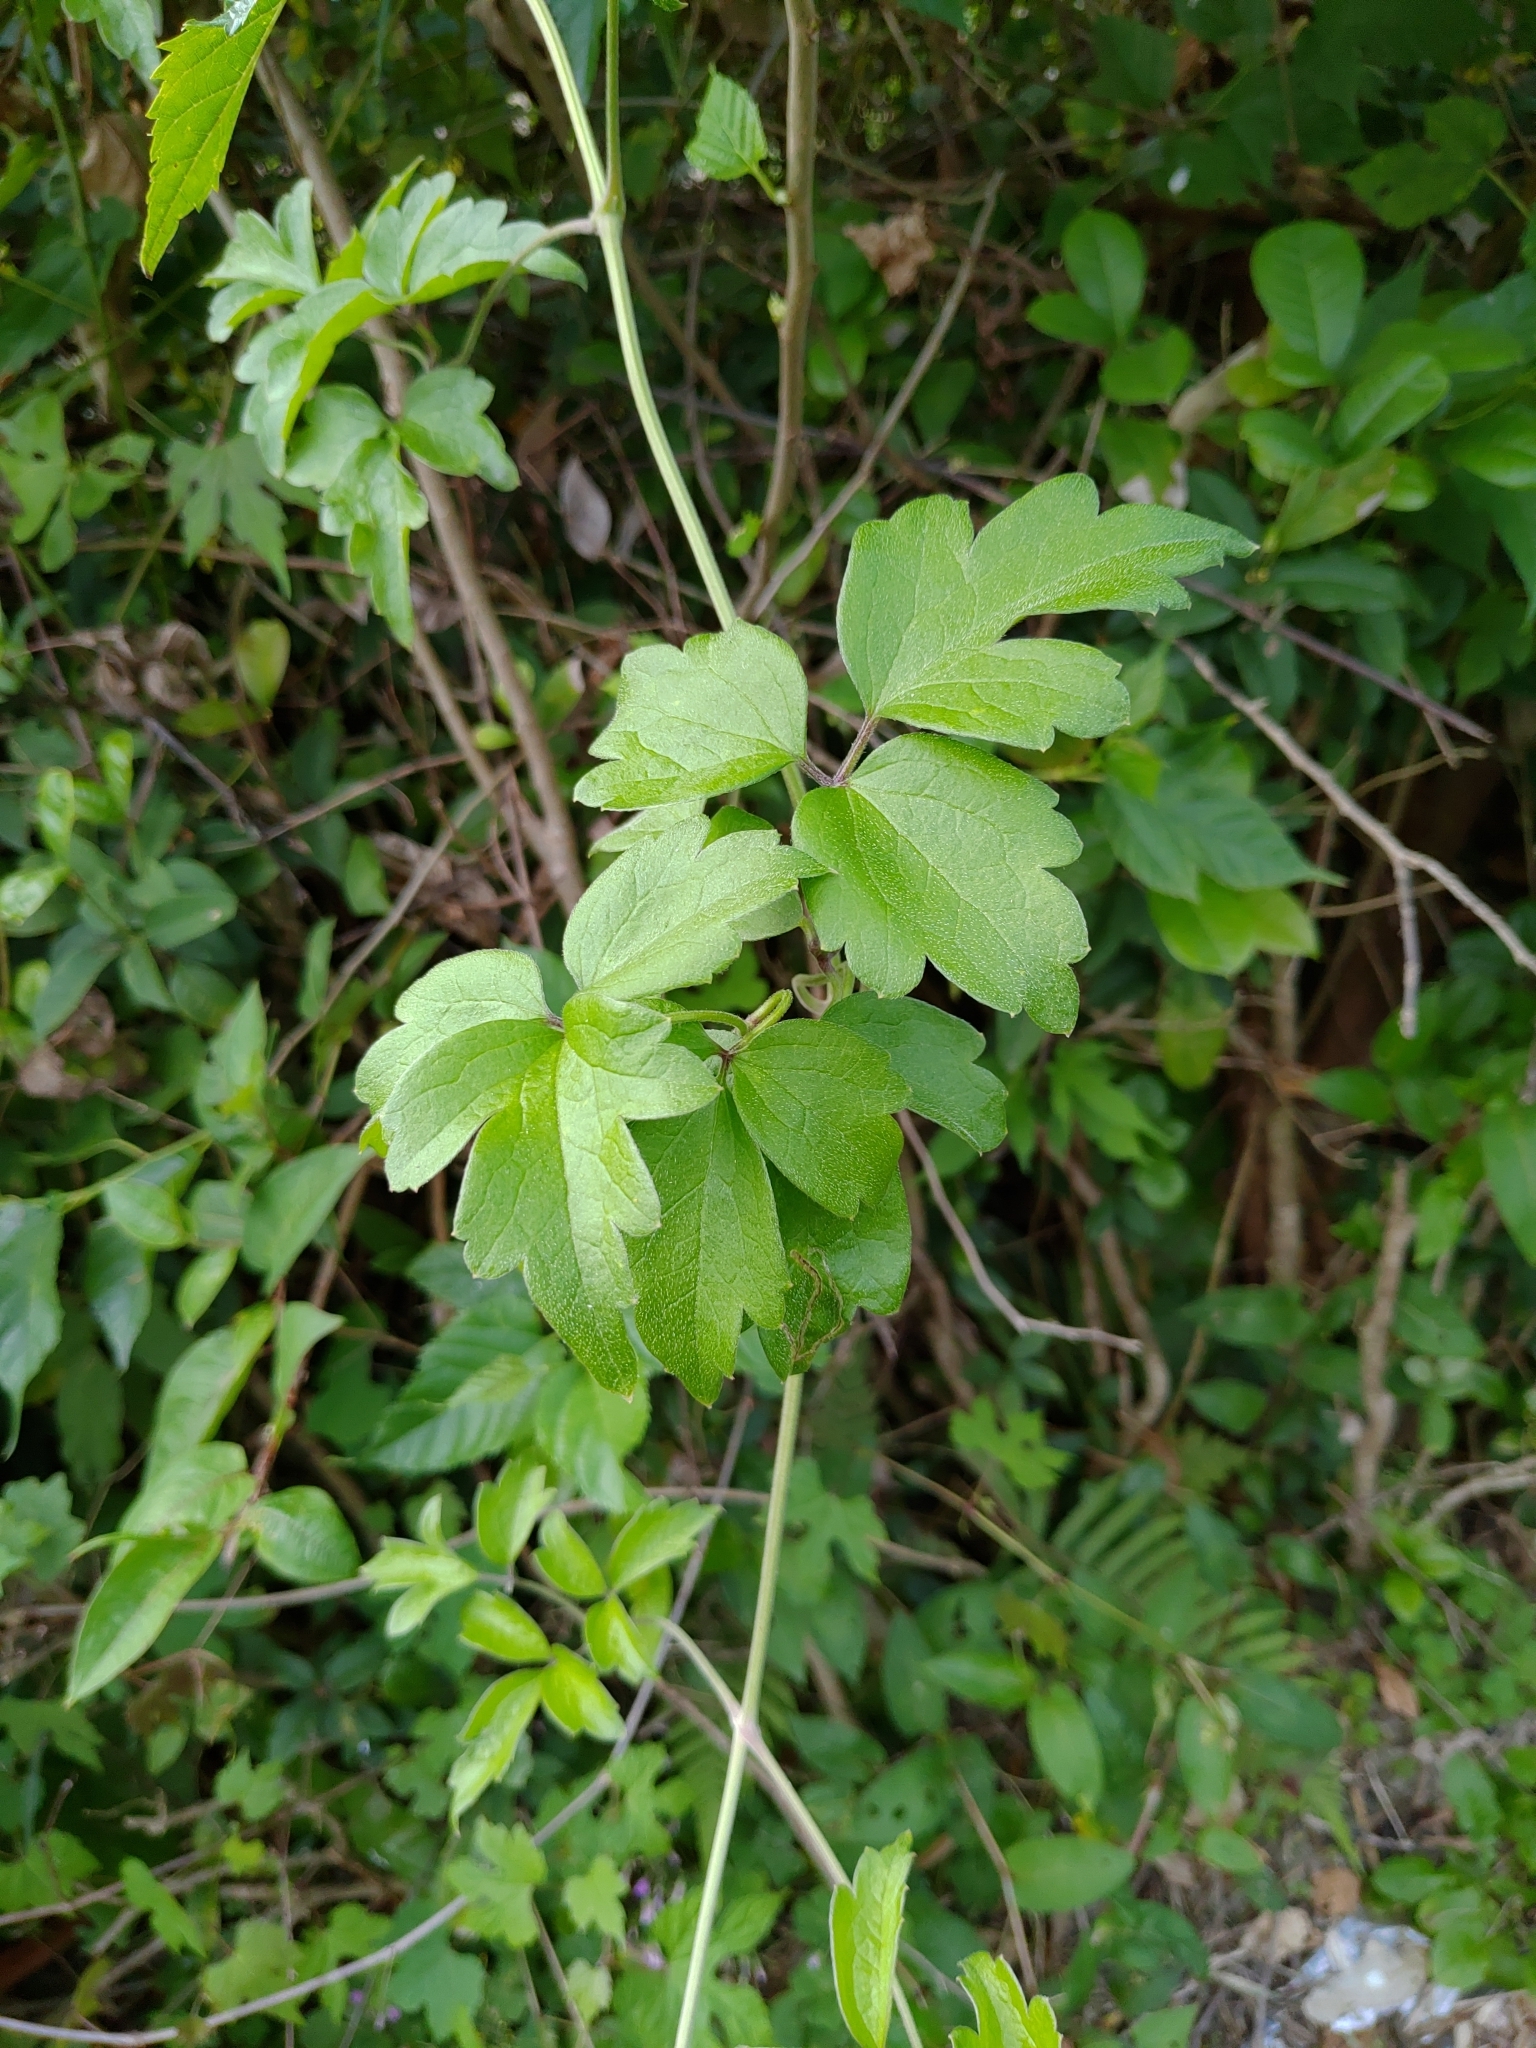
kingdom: Plantae
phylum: Tracheophyta
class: Magnoliopsida
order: Ranunculales
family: Ranunculaceae
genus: Clematis
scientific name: Clematis grata
